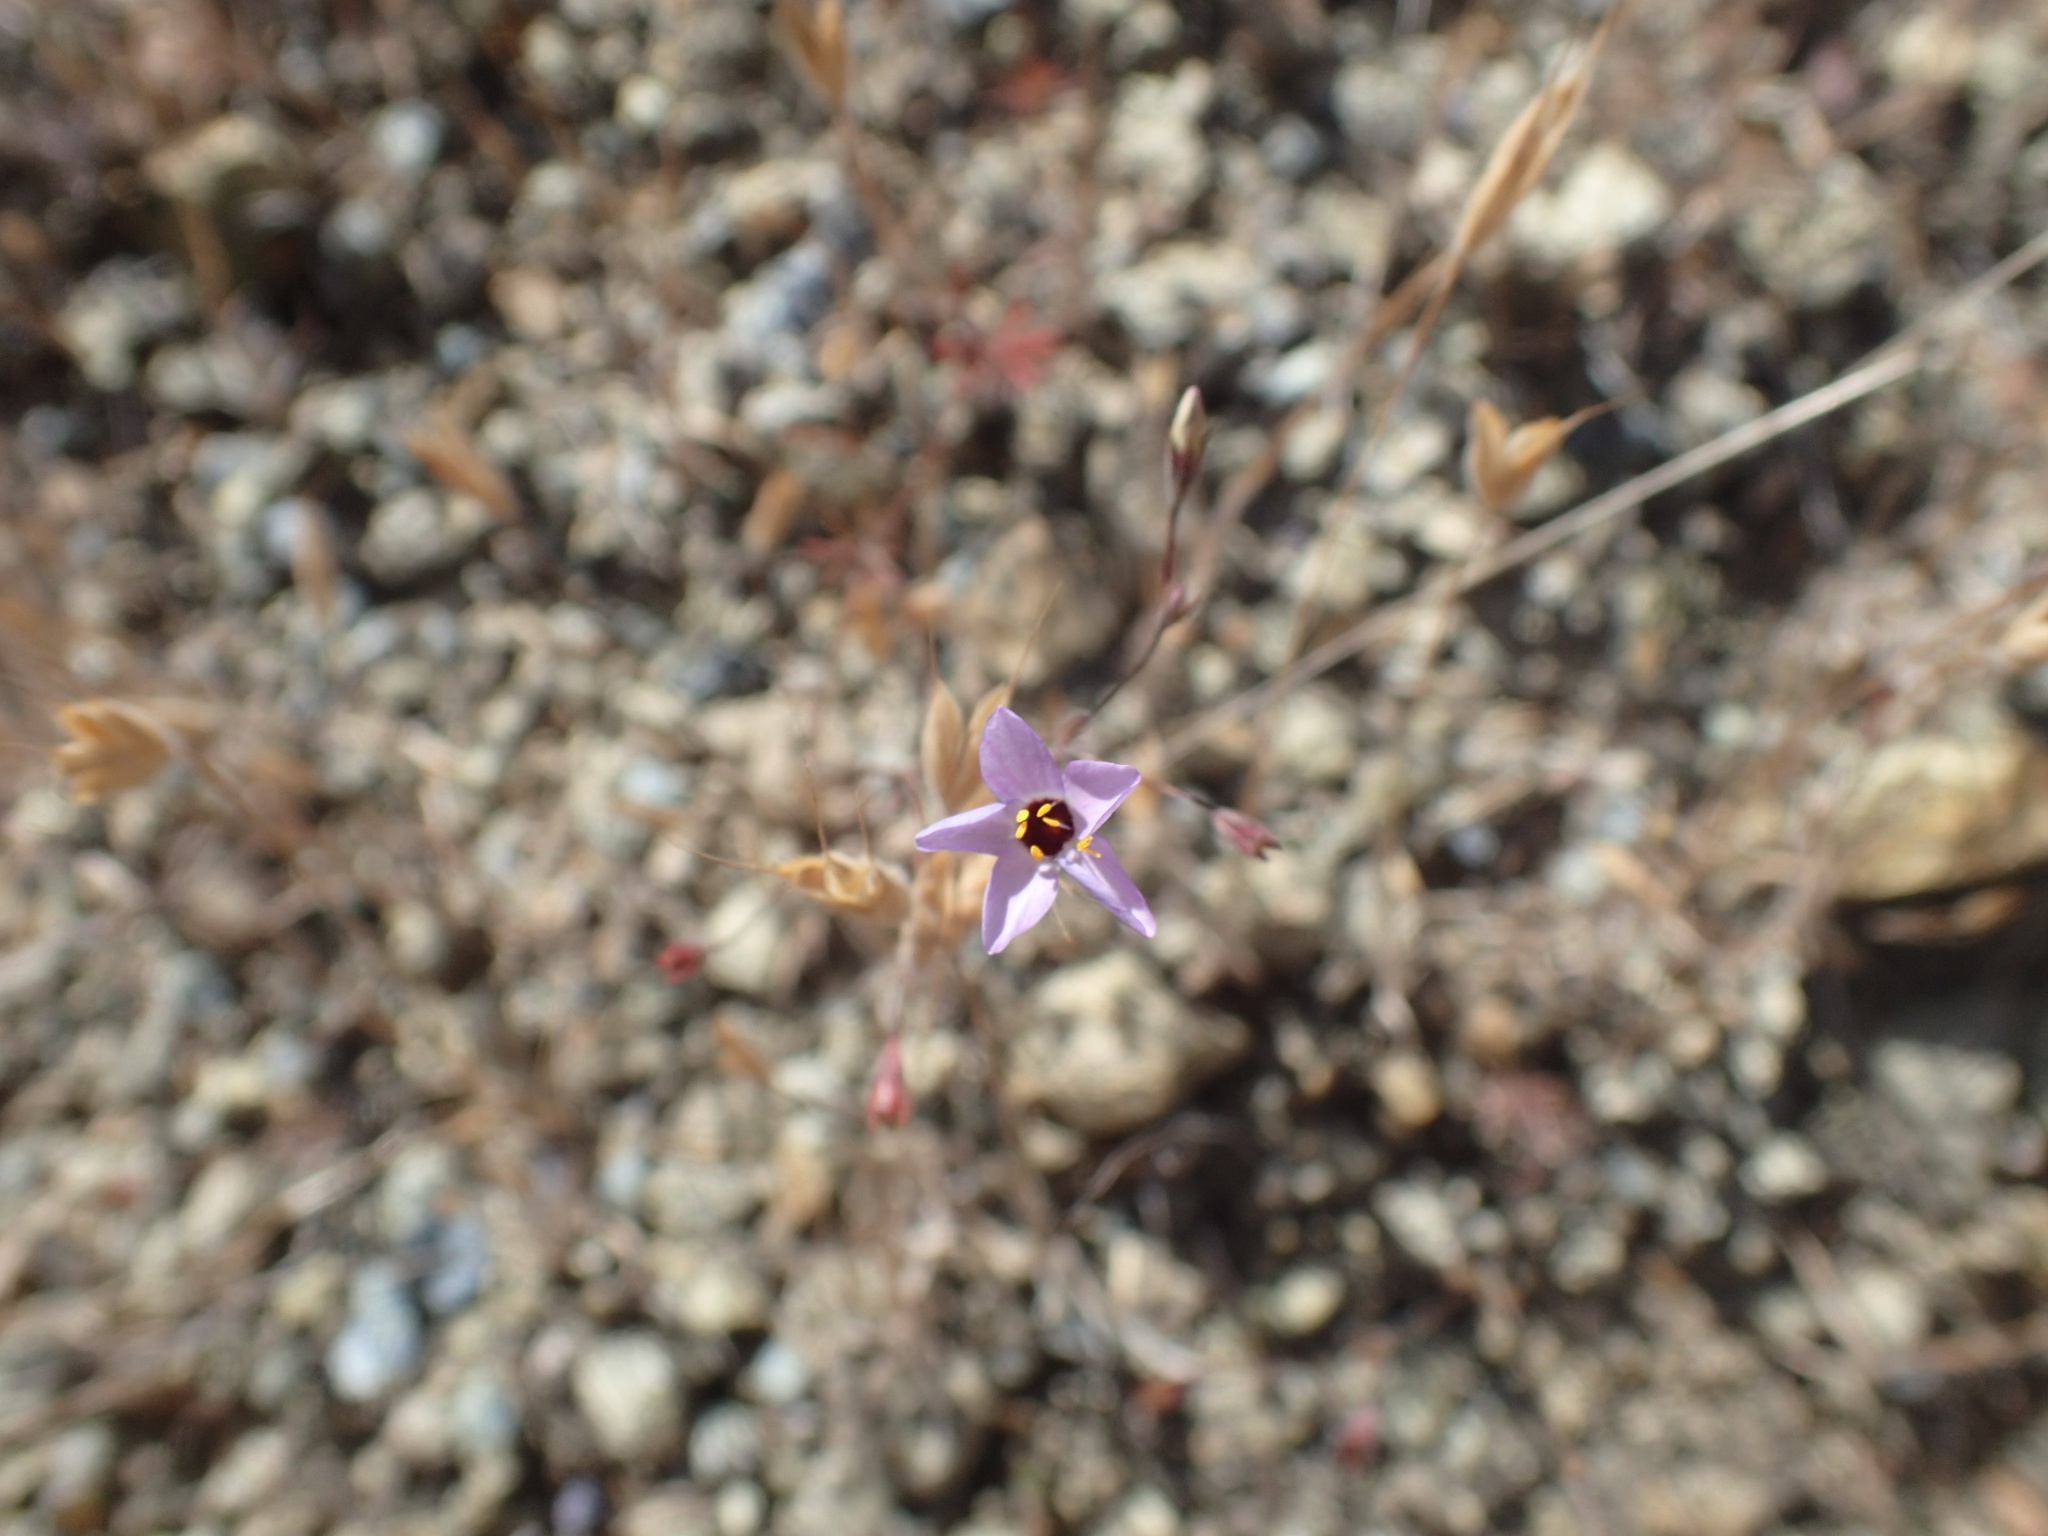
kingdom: Plantae
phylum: Tracheophyta
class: Magnoliopsida
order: Ericales
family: Polemoniaceae
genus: Leptosiphon
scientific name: Leptosiphon ambiguus
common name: Serpentine linanthus
